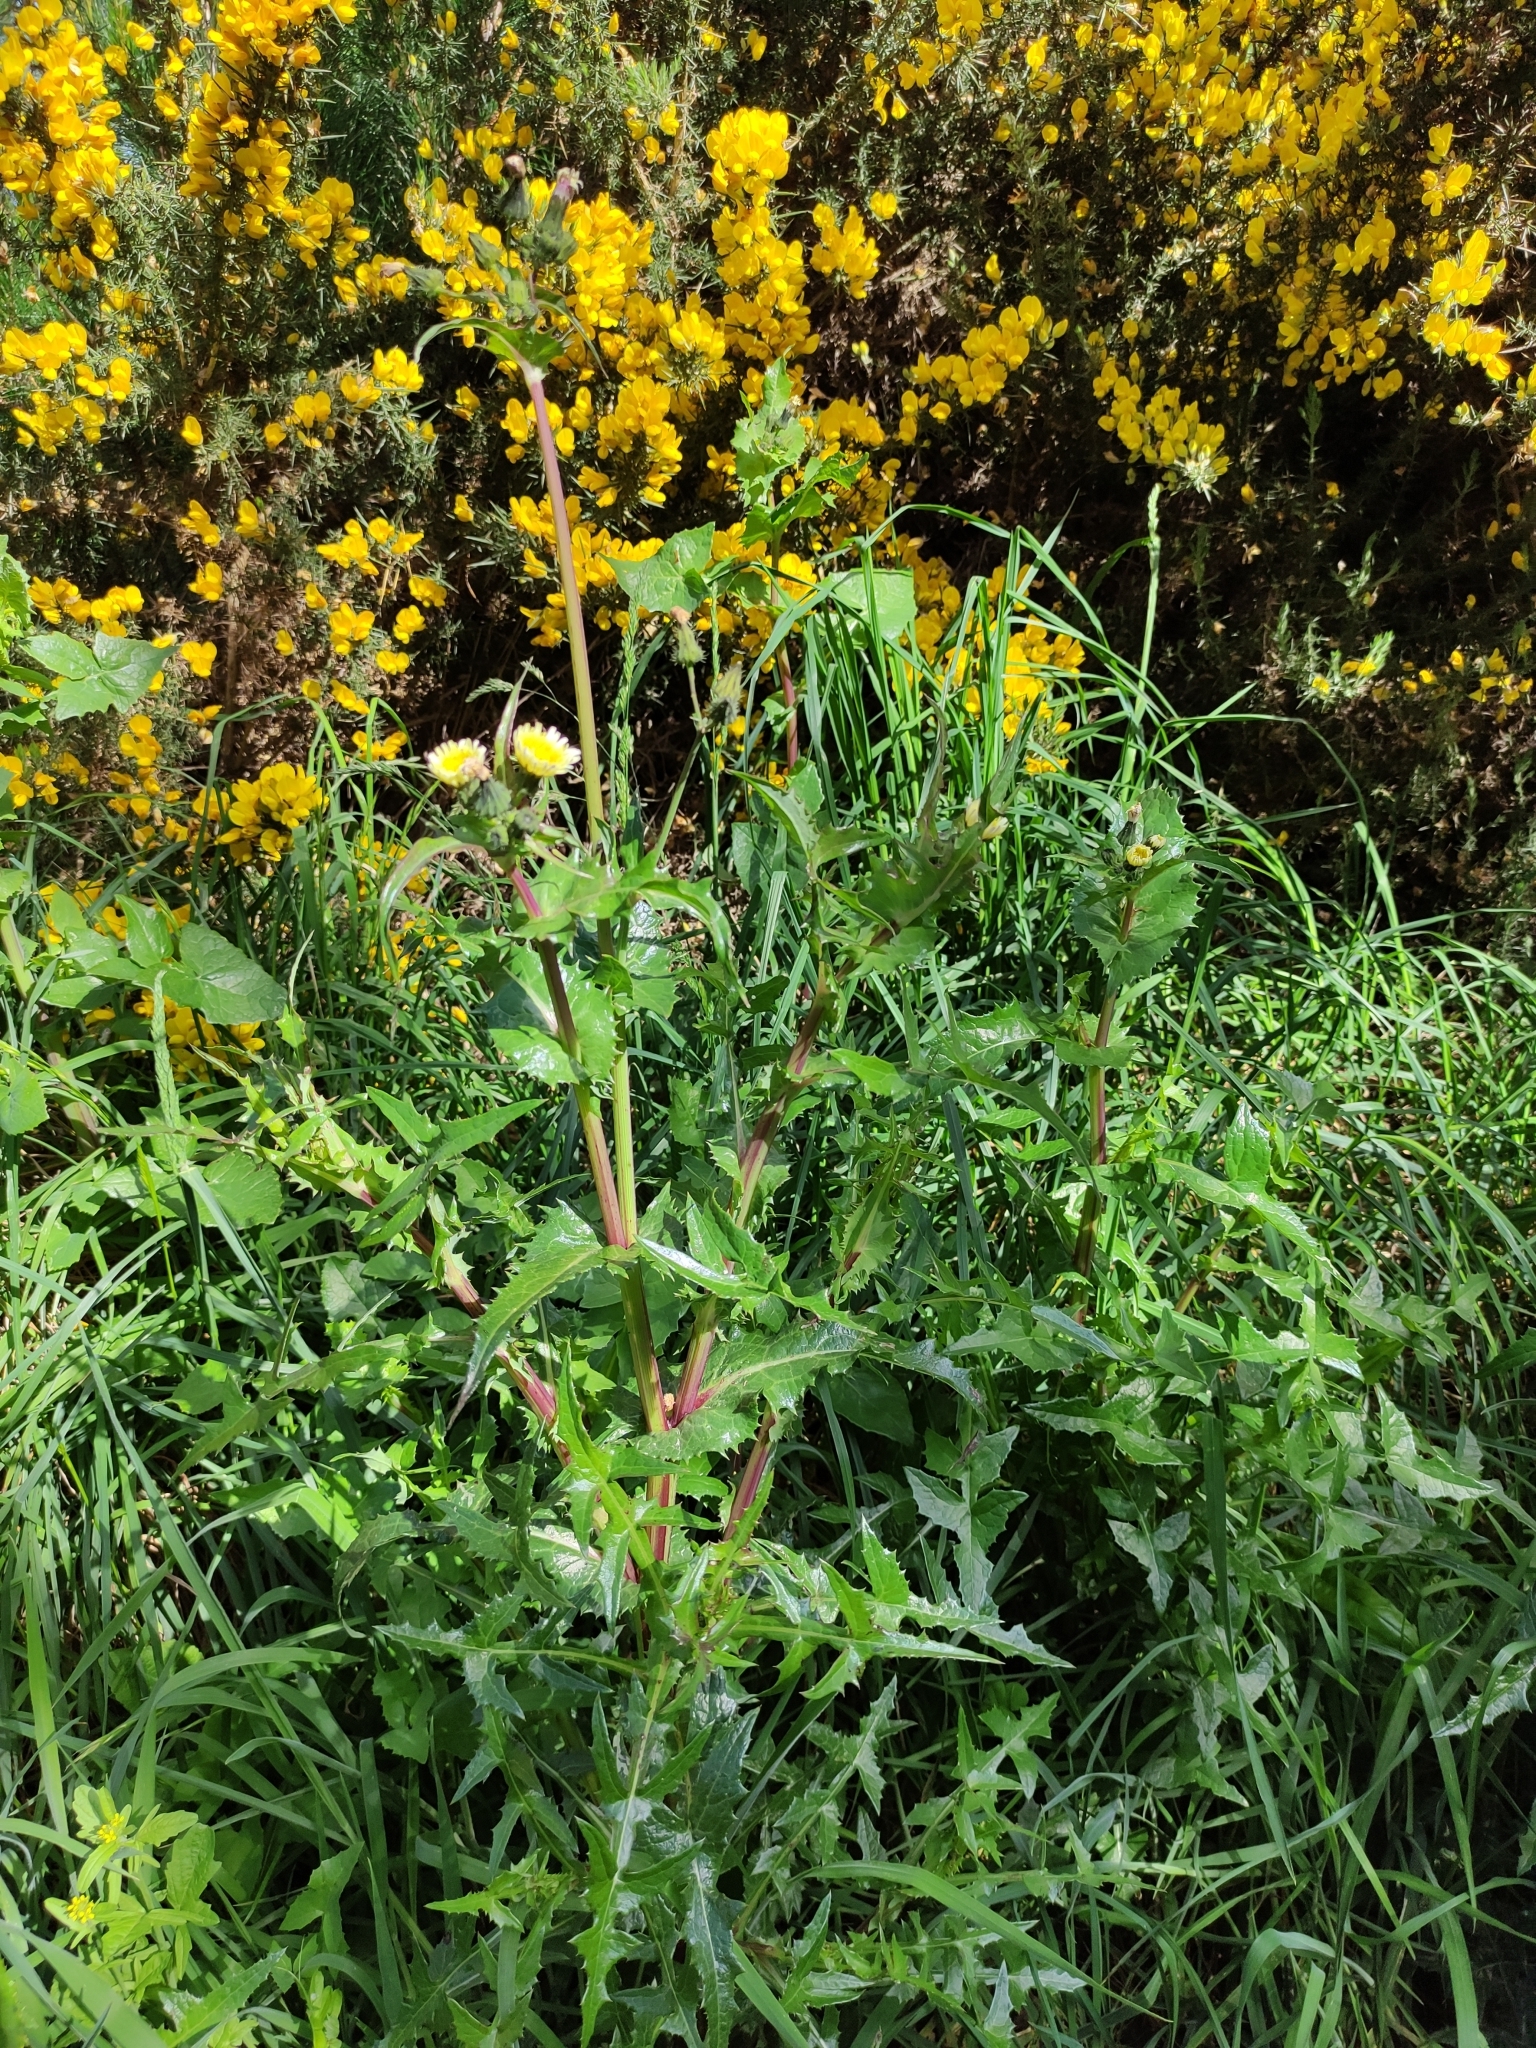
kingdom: Plantae
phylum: Tracheophyta
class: Magnoliopsida
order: Asterales
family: Asteraceae
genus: Sonchus
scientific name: Sonchus oleraceus
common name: Common sowthistle
